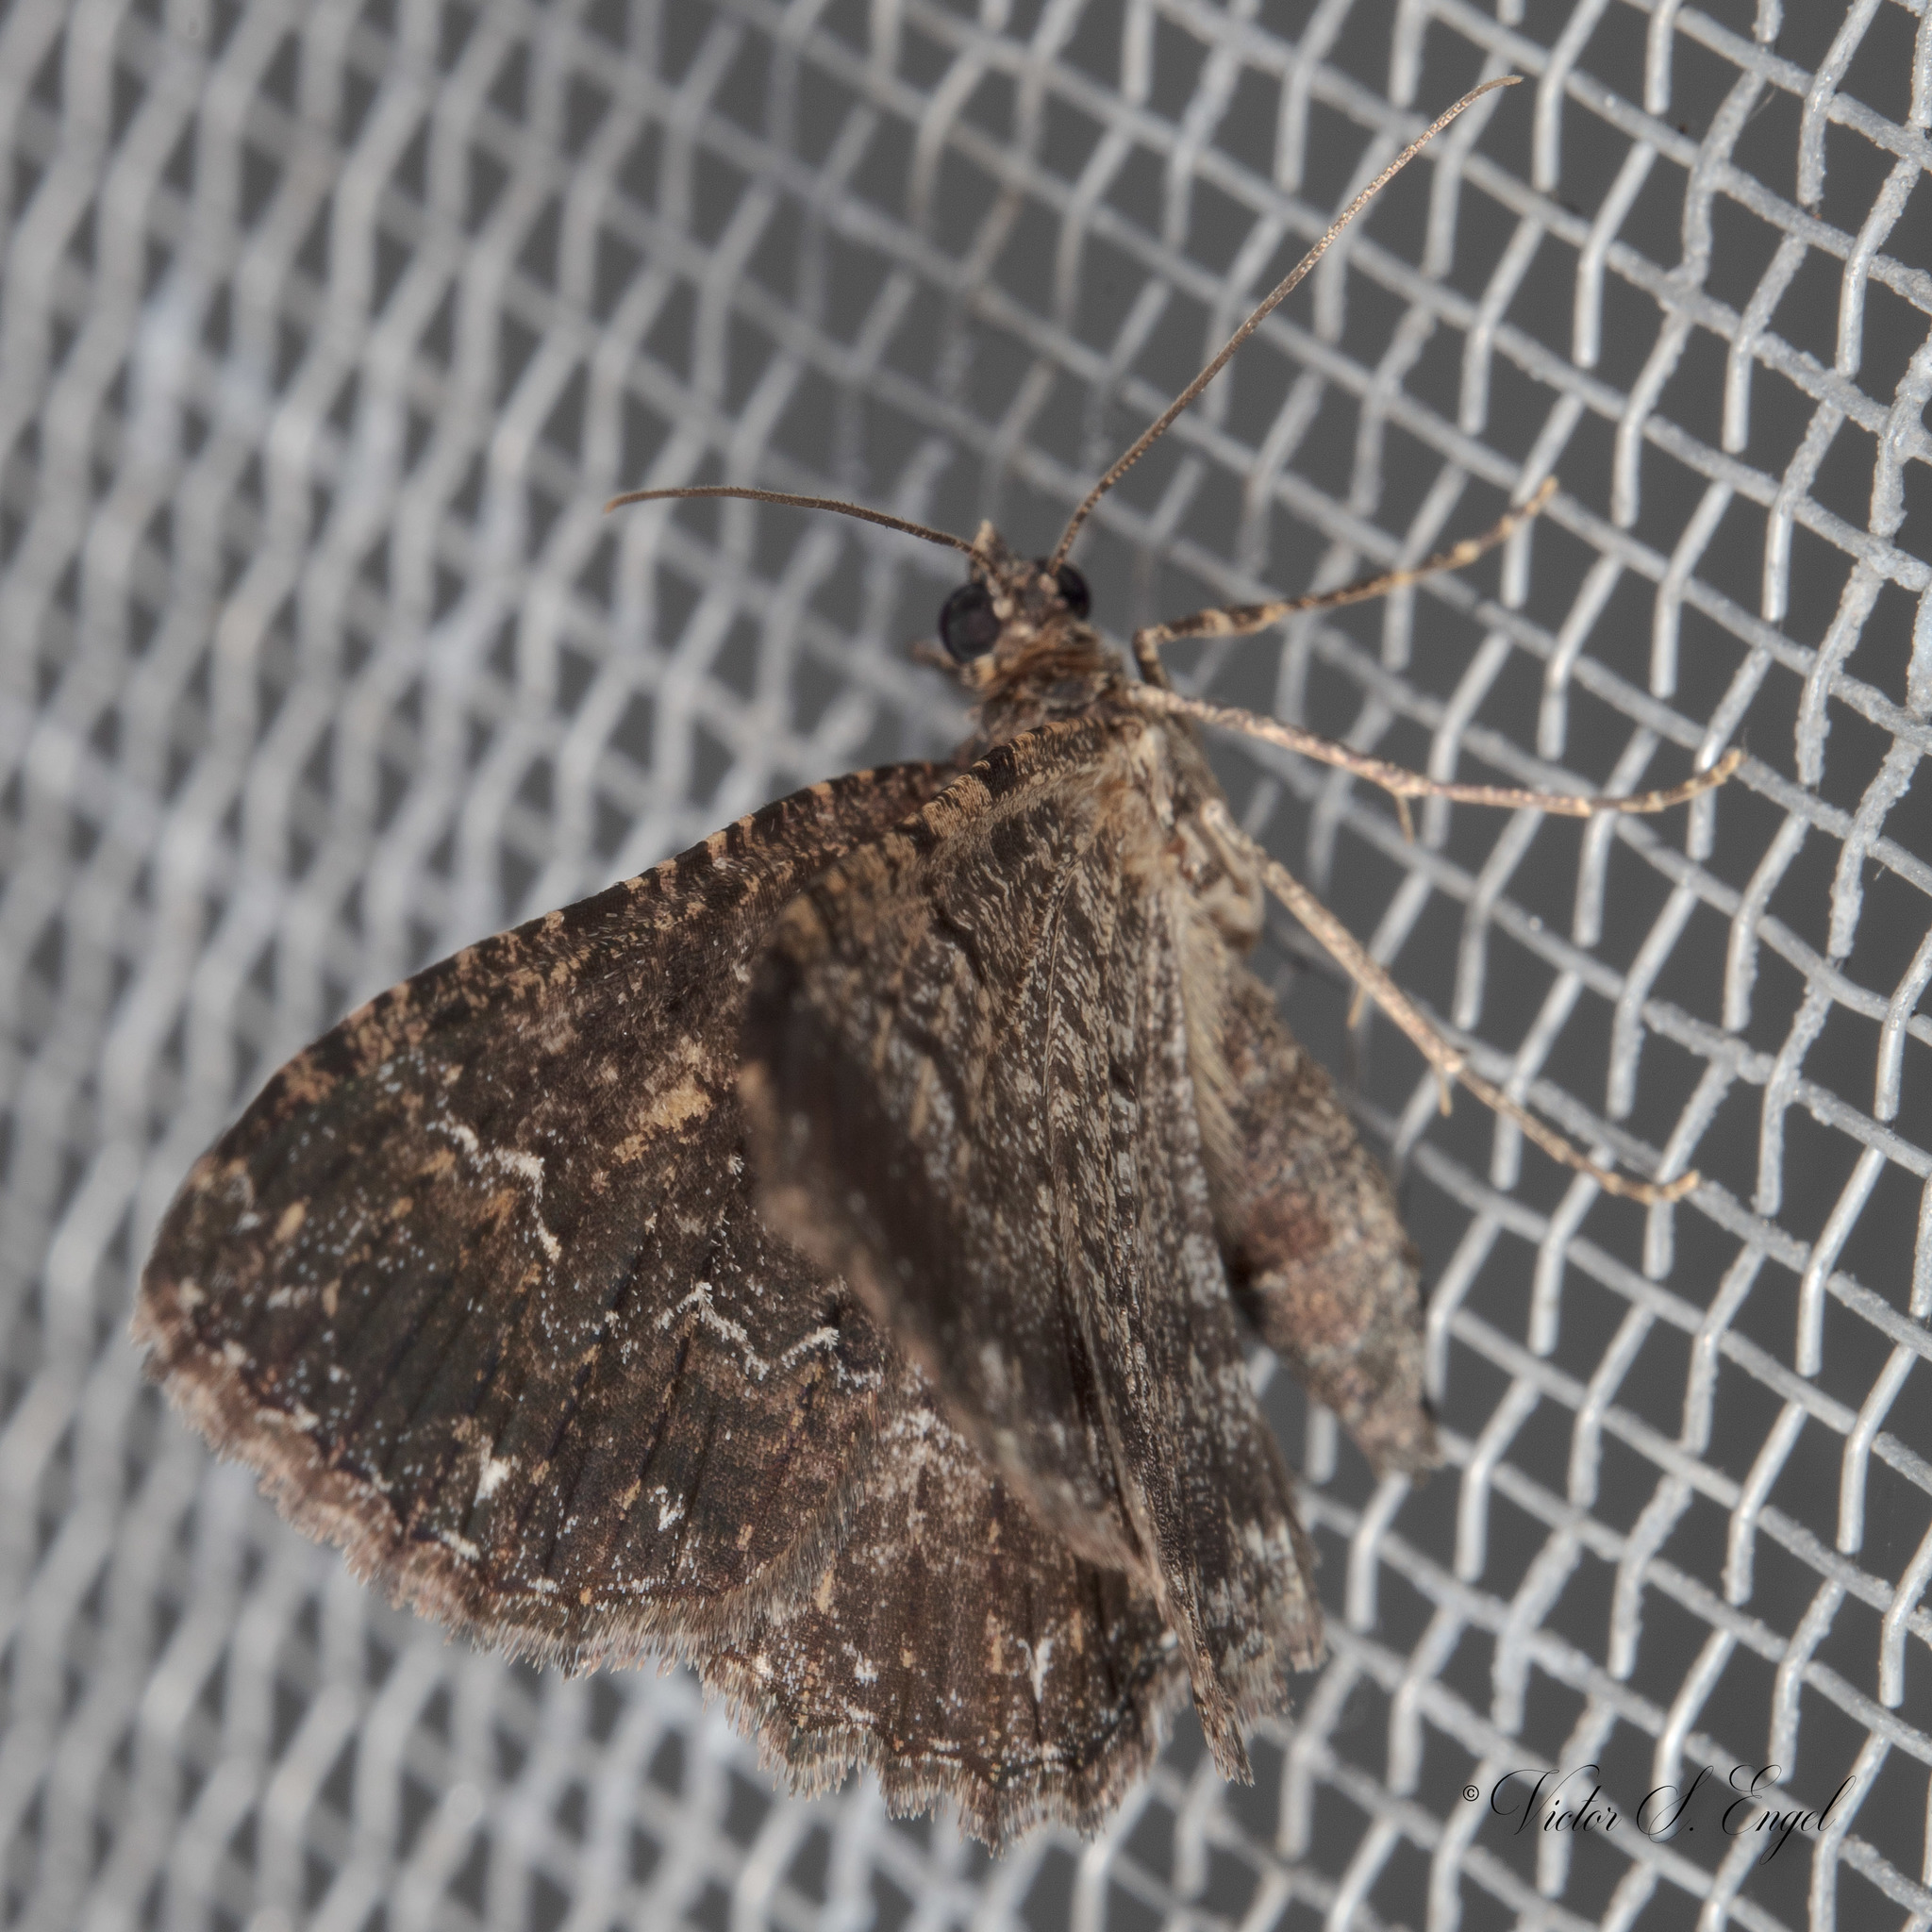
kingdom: Animalia
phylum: Arthropoda
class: Insecta
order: Lepidoptera
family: Geometridae
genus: Disclisioprocta
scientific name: Disclisioprocta stellata
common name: Somber carpet
